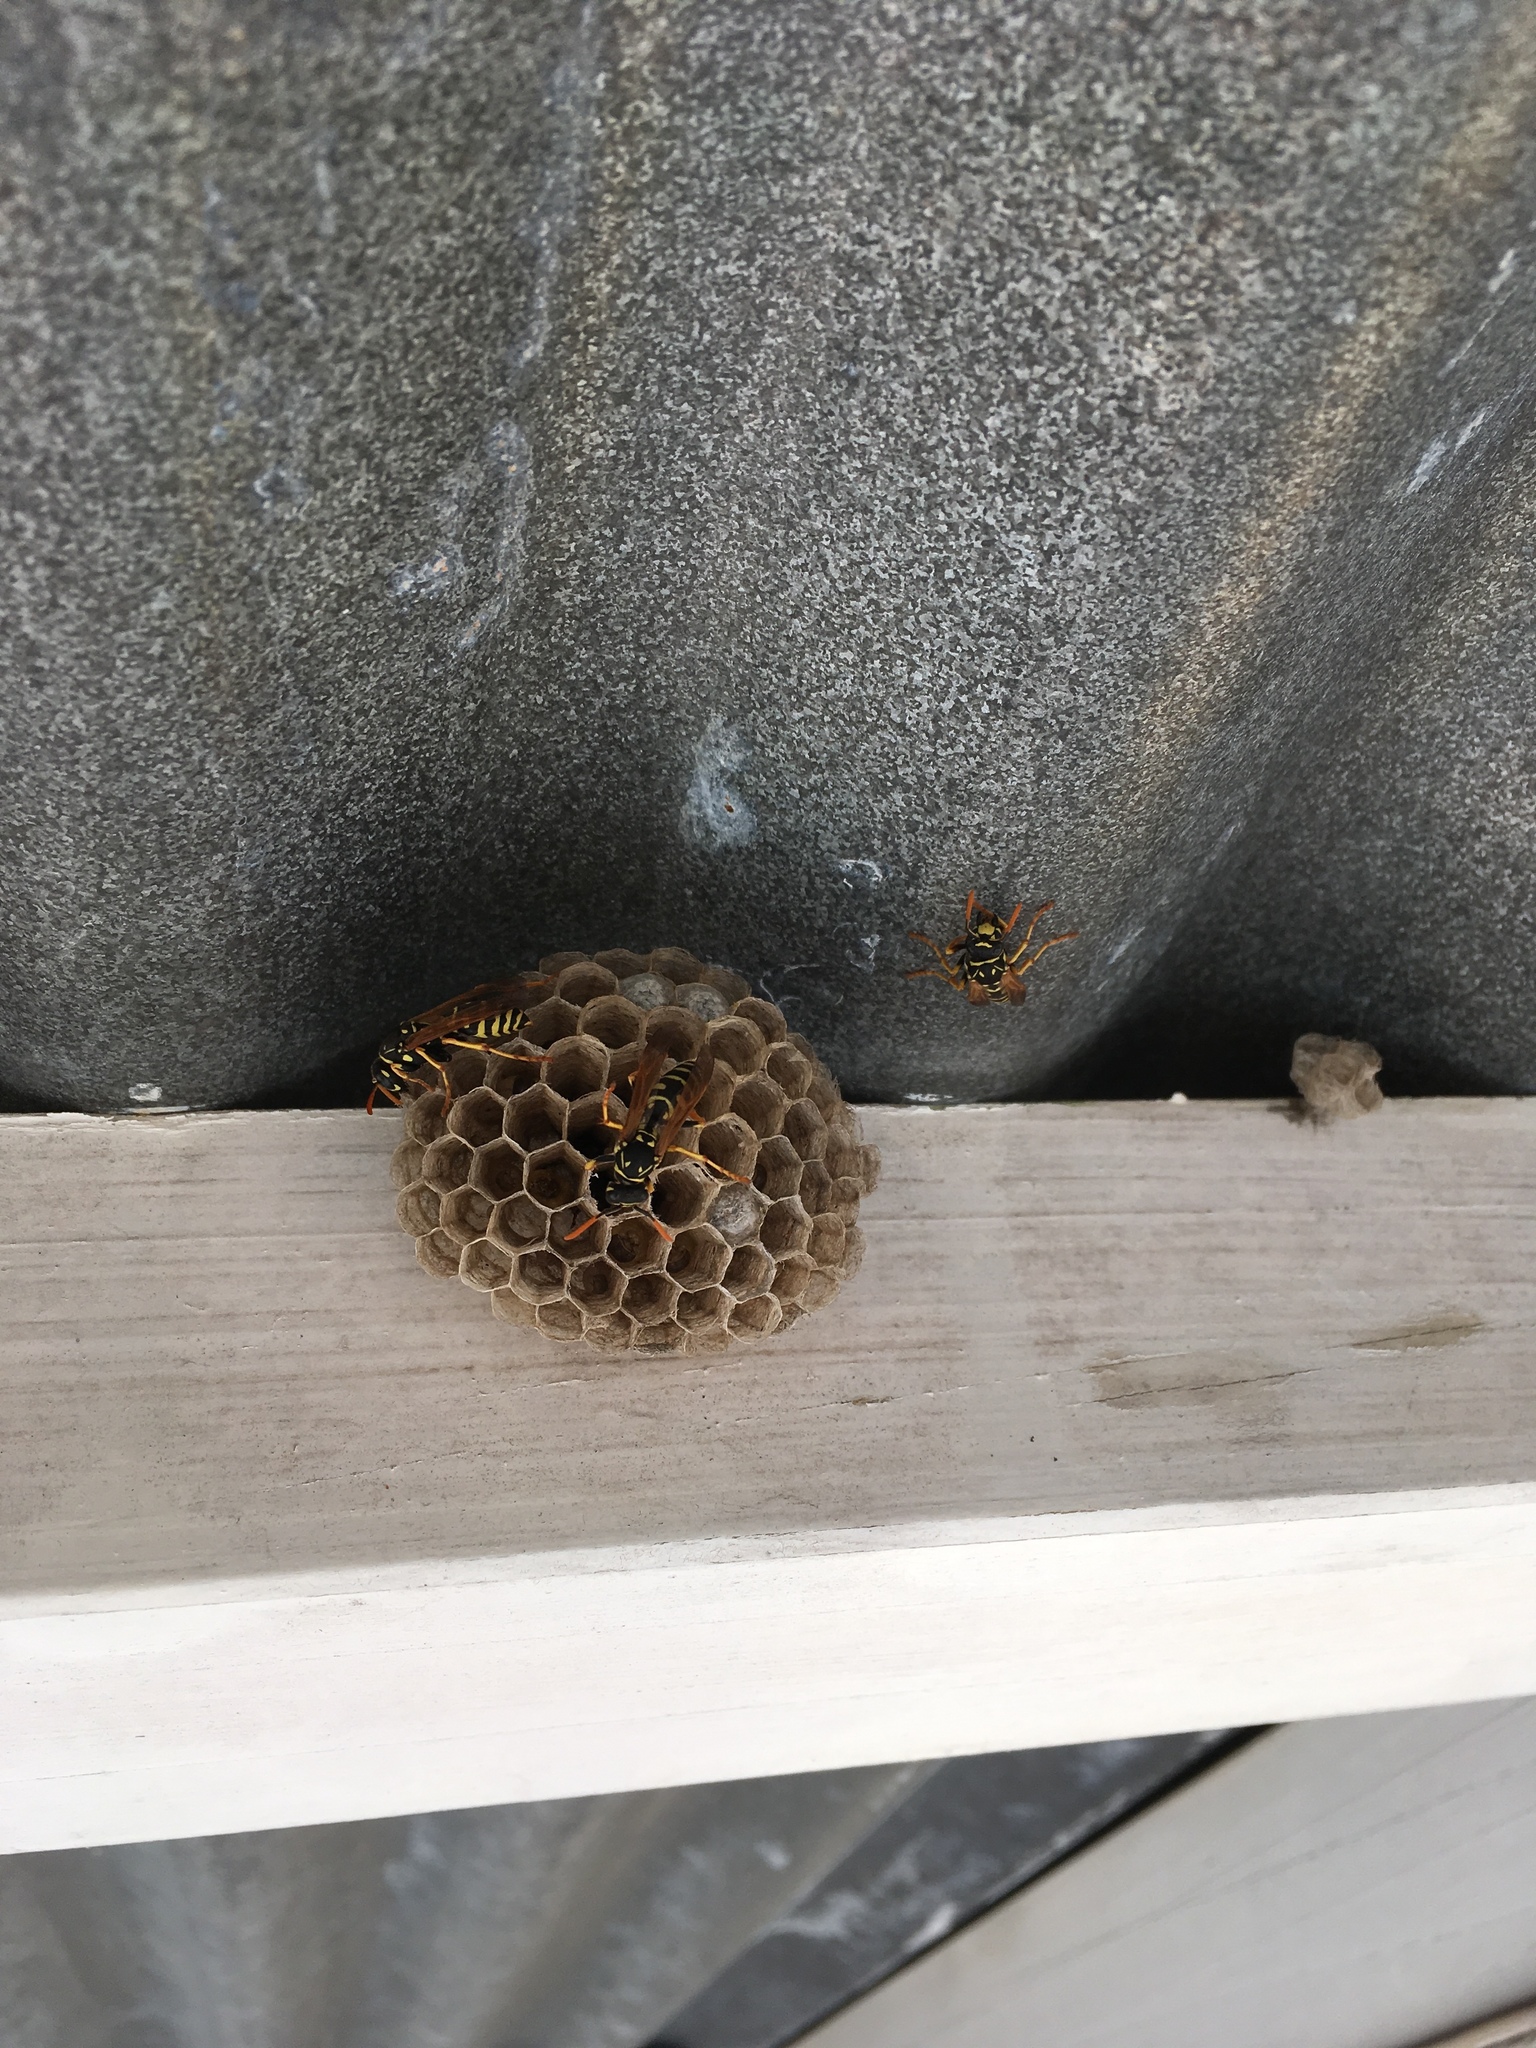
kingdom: Animalia
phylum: Arthropoda
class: Insecta
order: Hymenoptera
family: Eumenidae
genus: Polistes
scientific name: Polistes dominula
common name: Paper wasp
